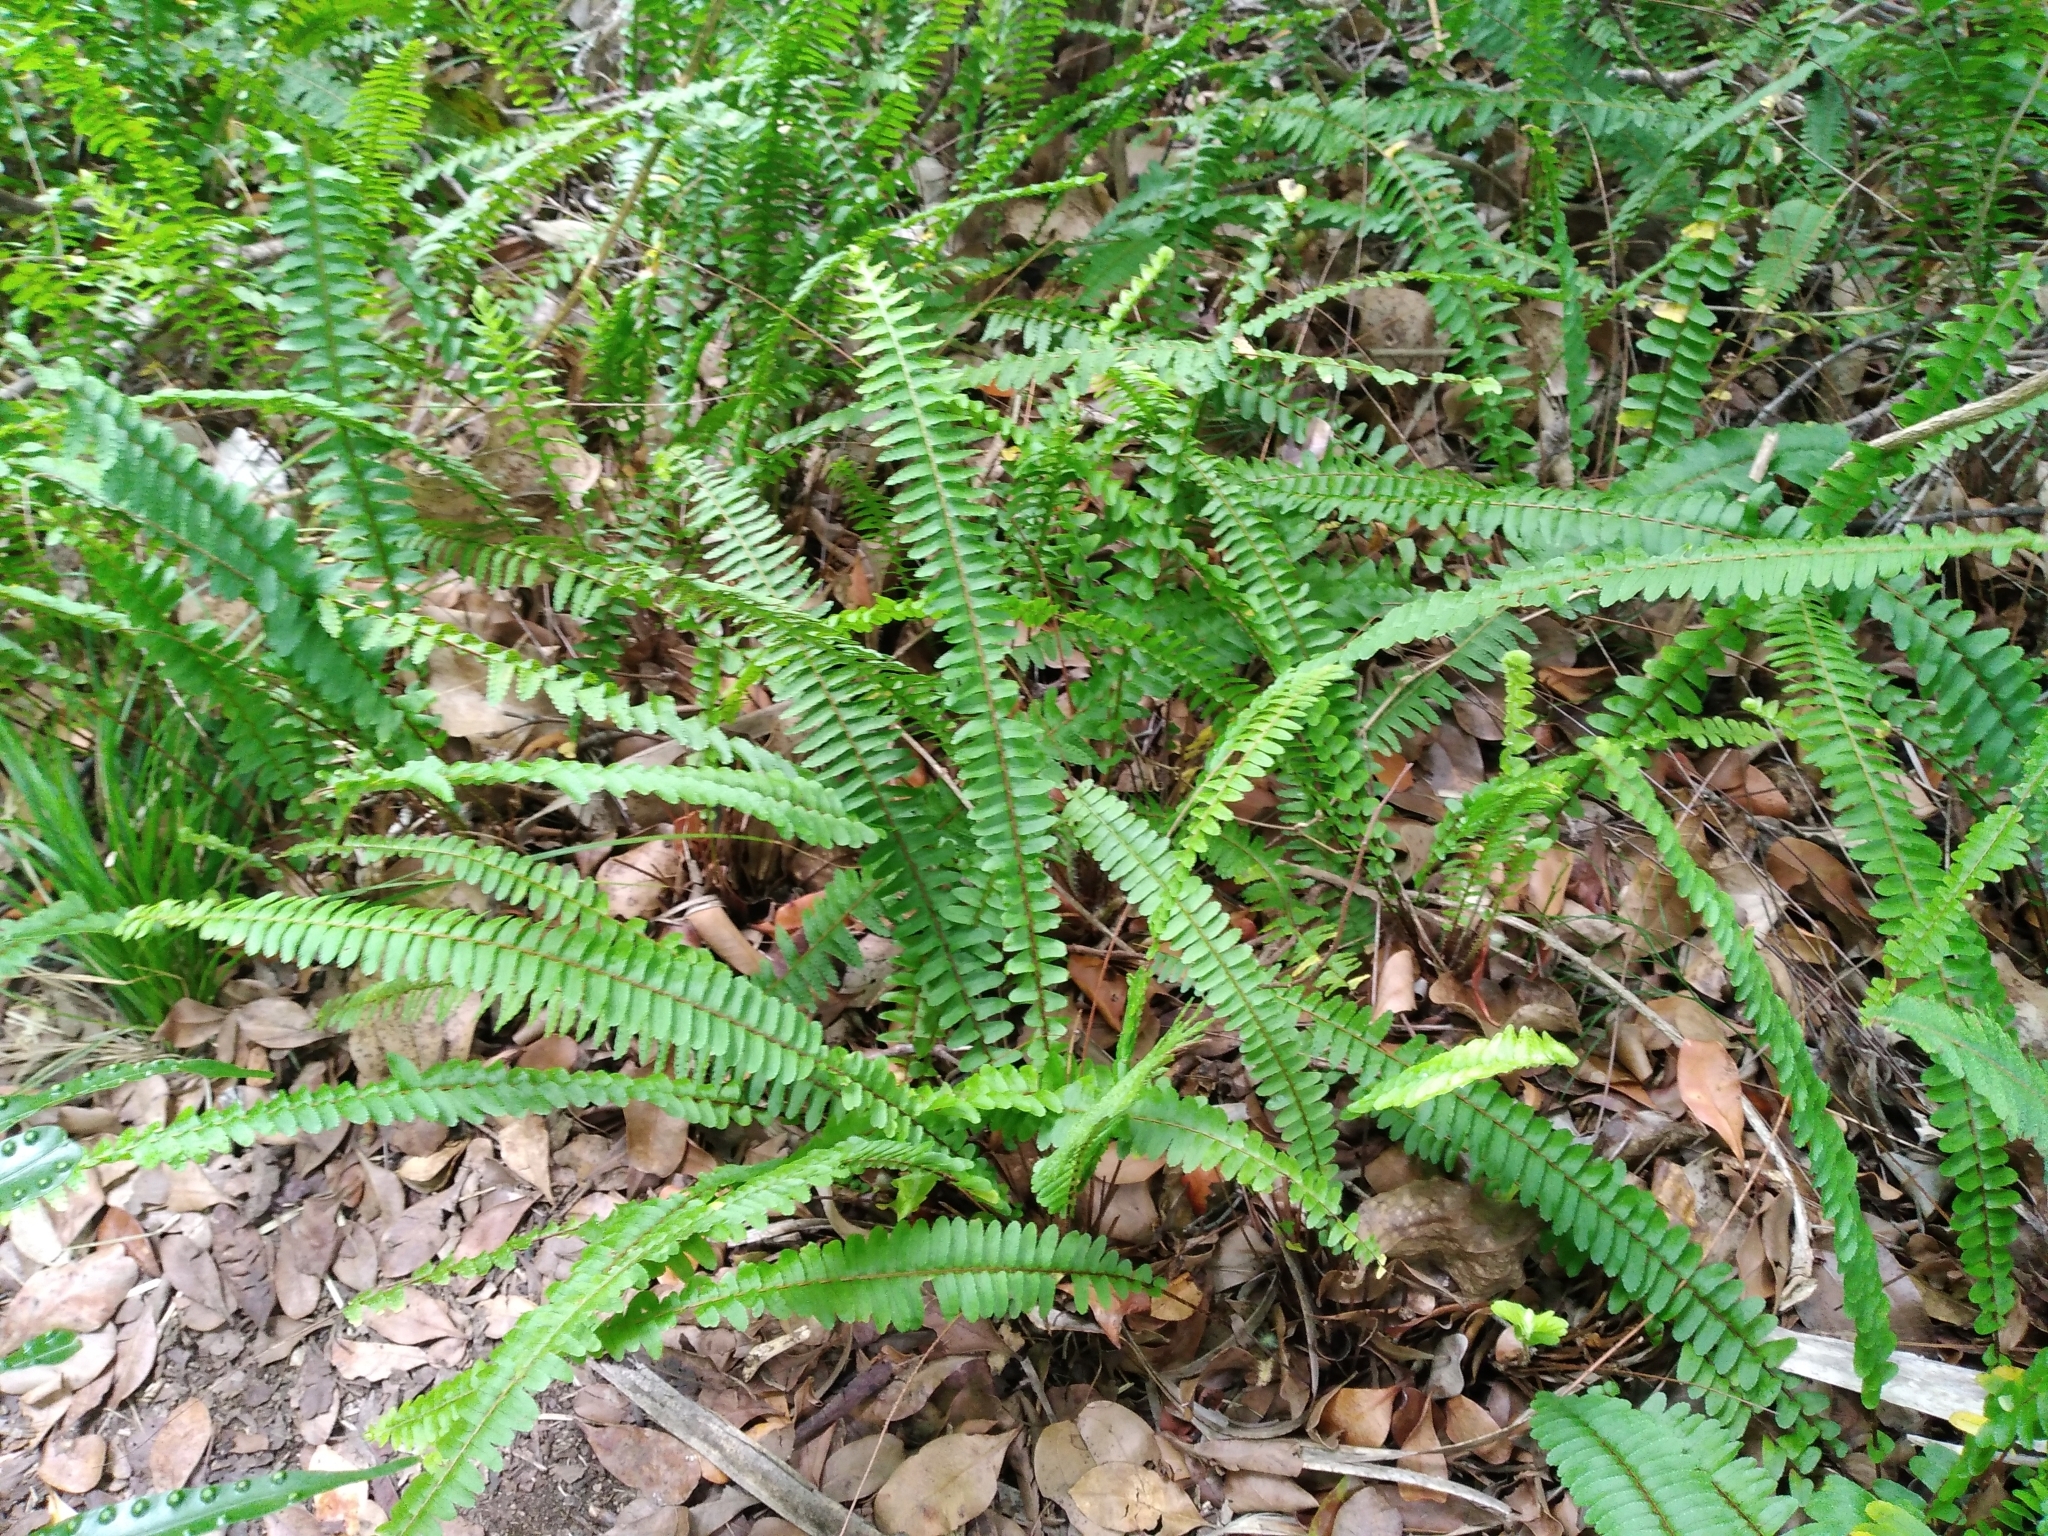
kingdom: Plantae
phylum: Tracheophyta
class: Polypodiopsida
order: Polypodiales
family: Nephrolepidaceae
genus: Nephrolepis
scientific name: Nephrolepis flexuosa
